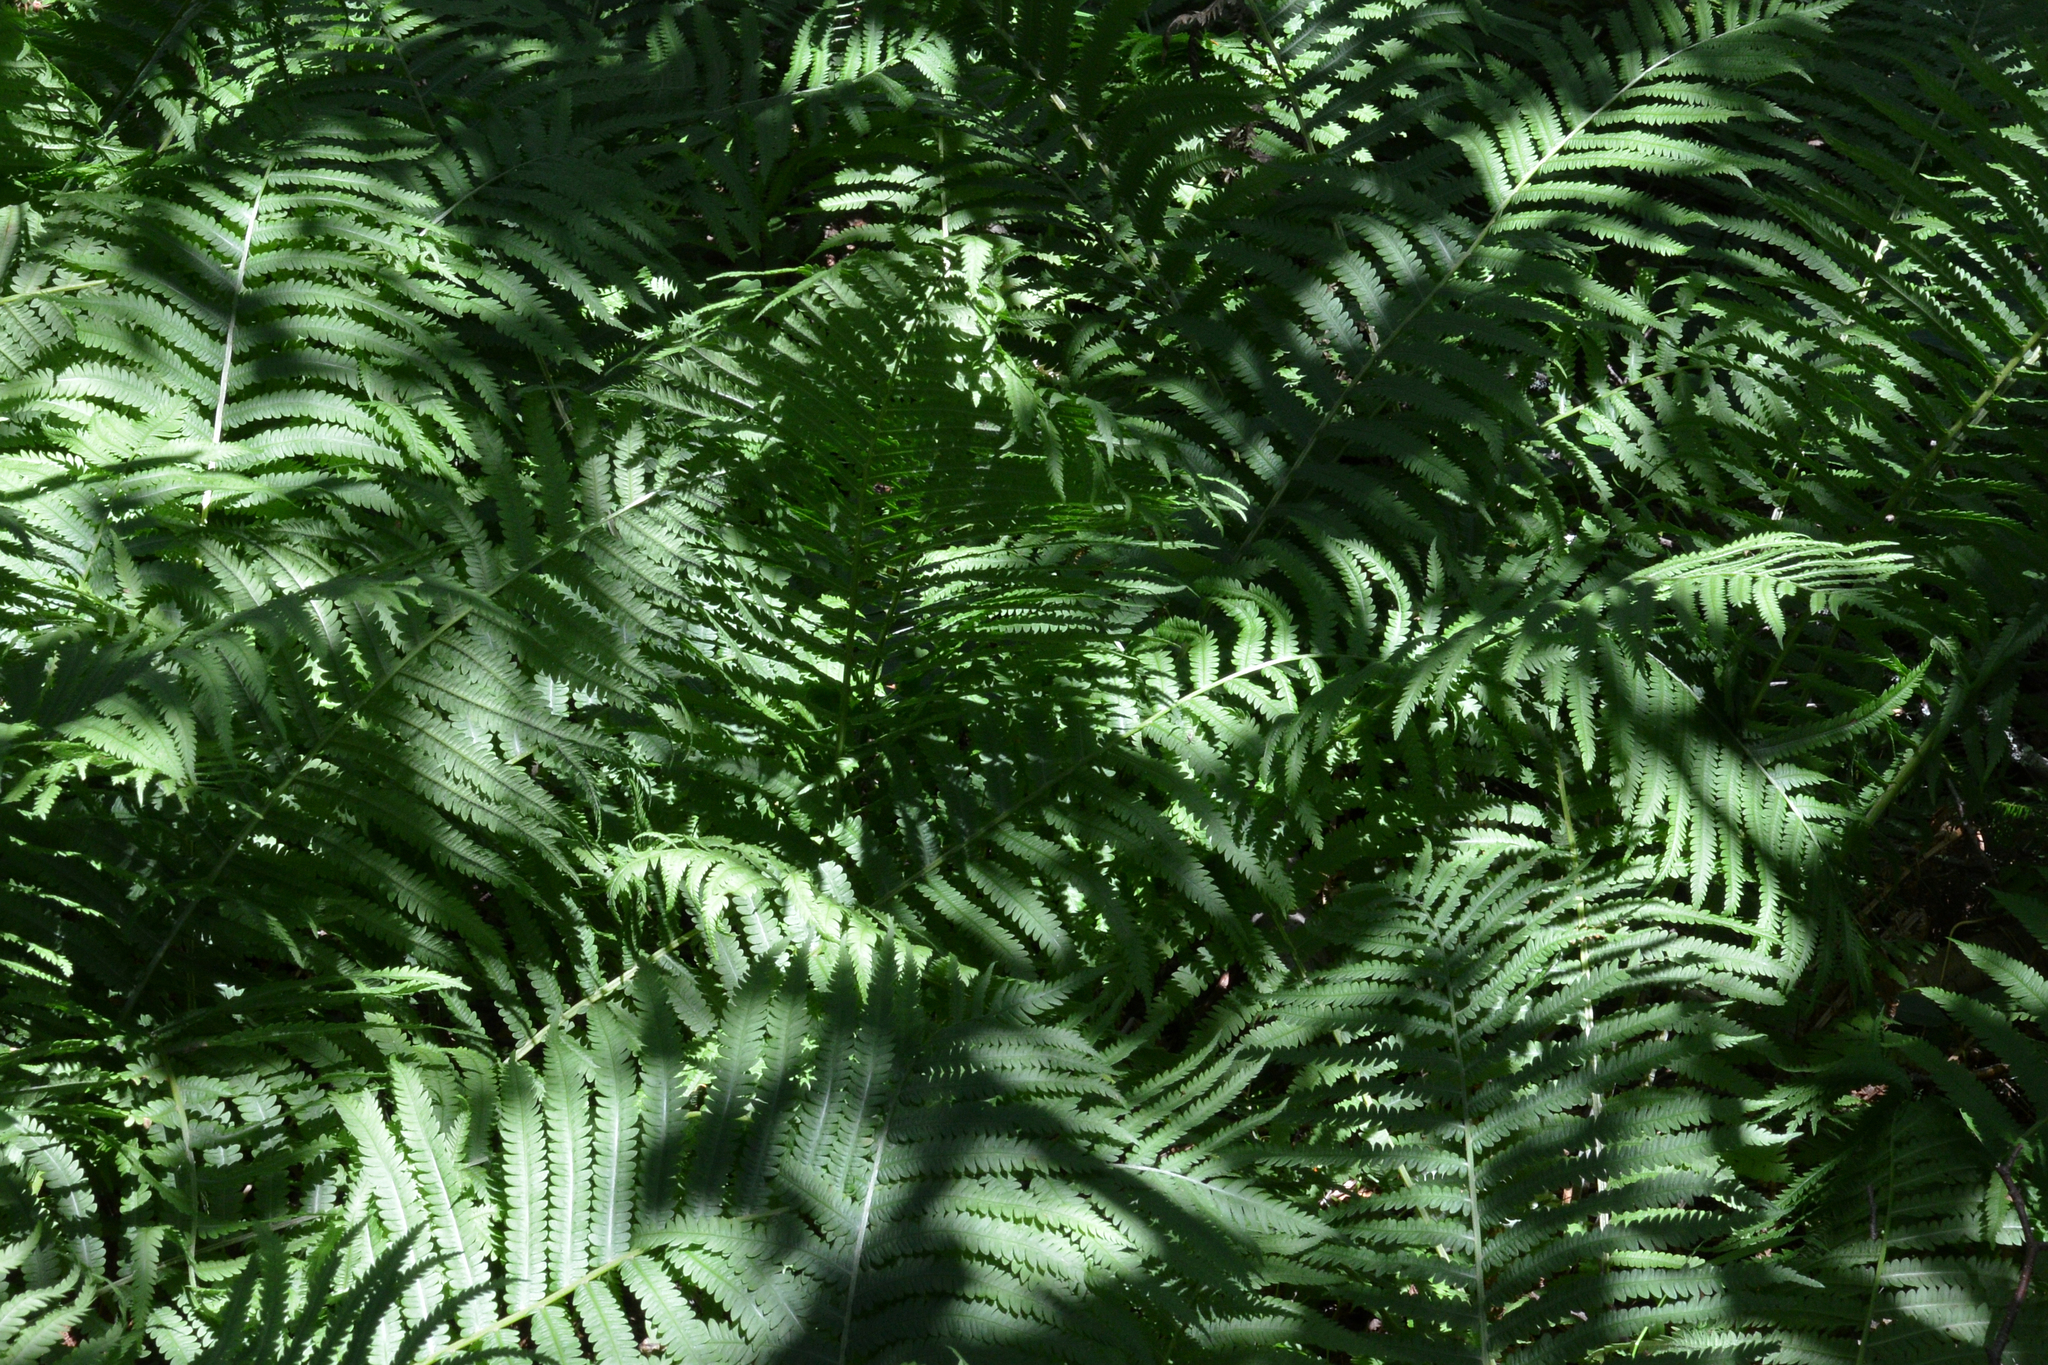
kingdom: Plantae
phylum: Tracheophyta
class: Polypodiopsida
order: Polypodiales
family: Onocleaceae
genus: Matteuccia
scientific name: Matteuccia struthiopteris
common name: Ostrich fern
